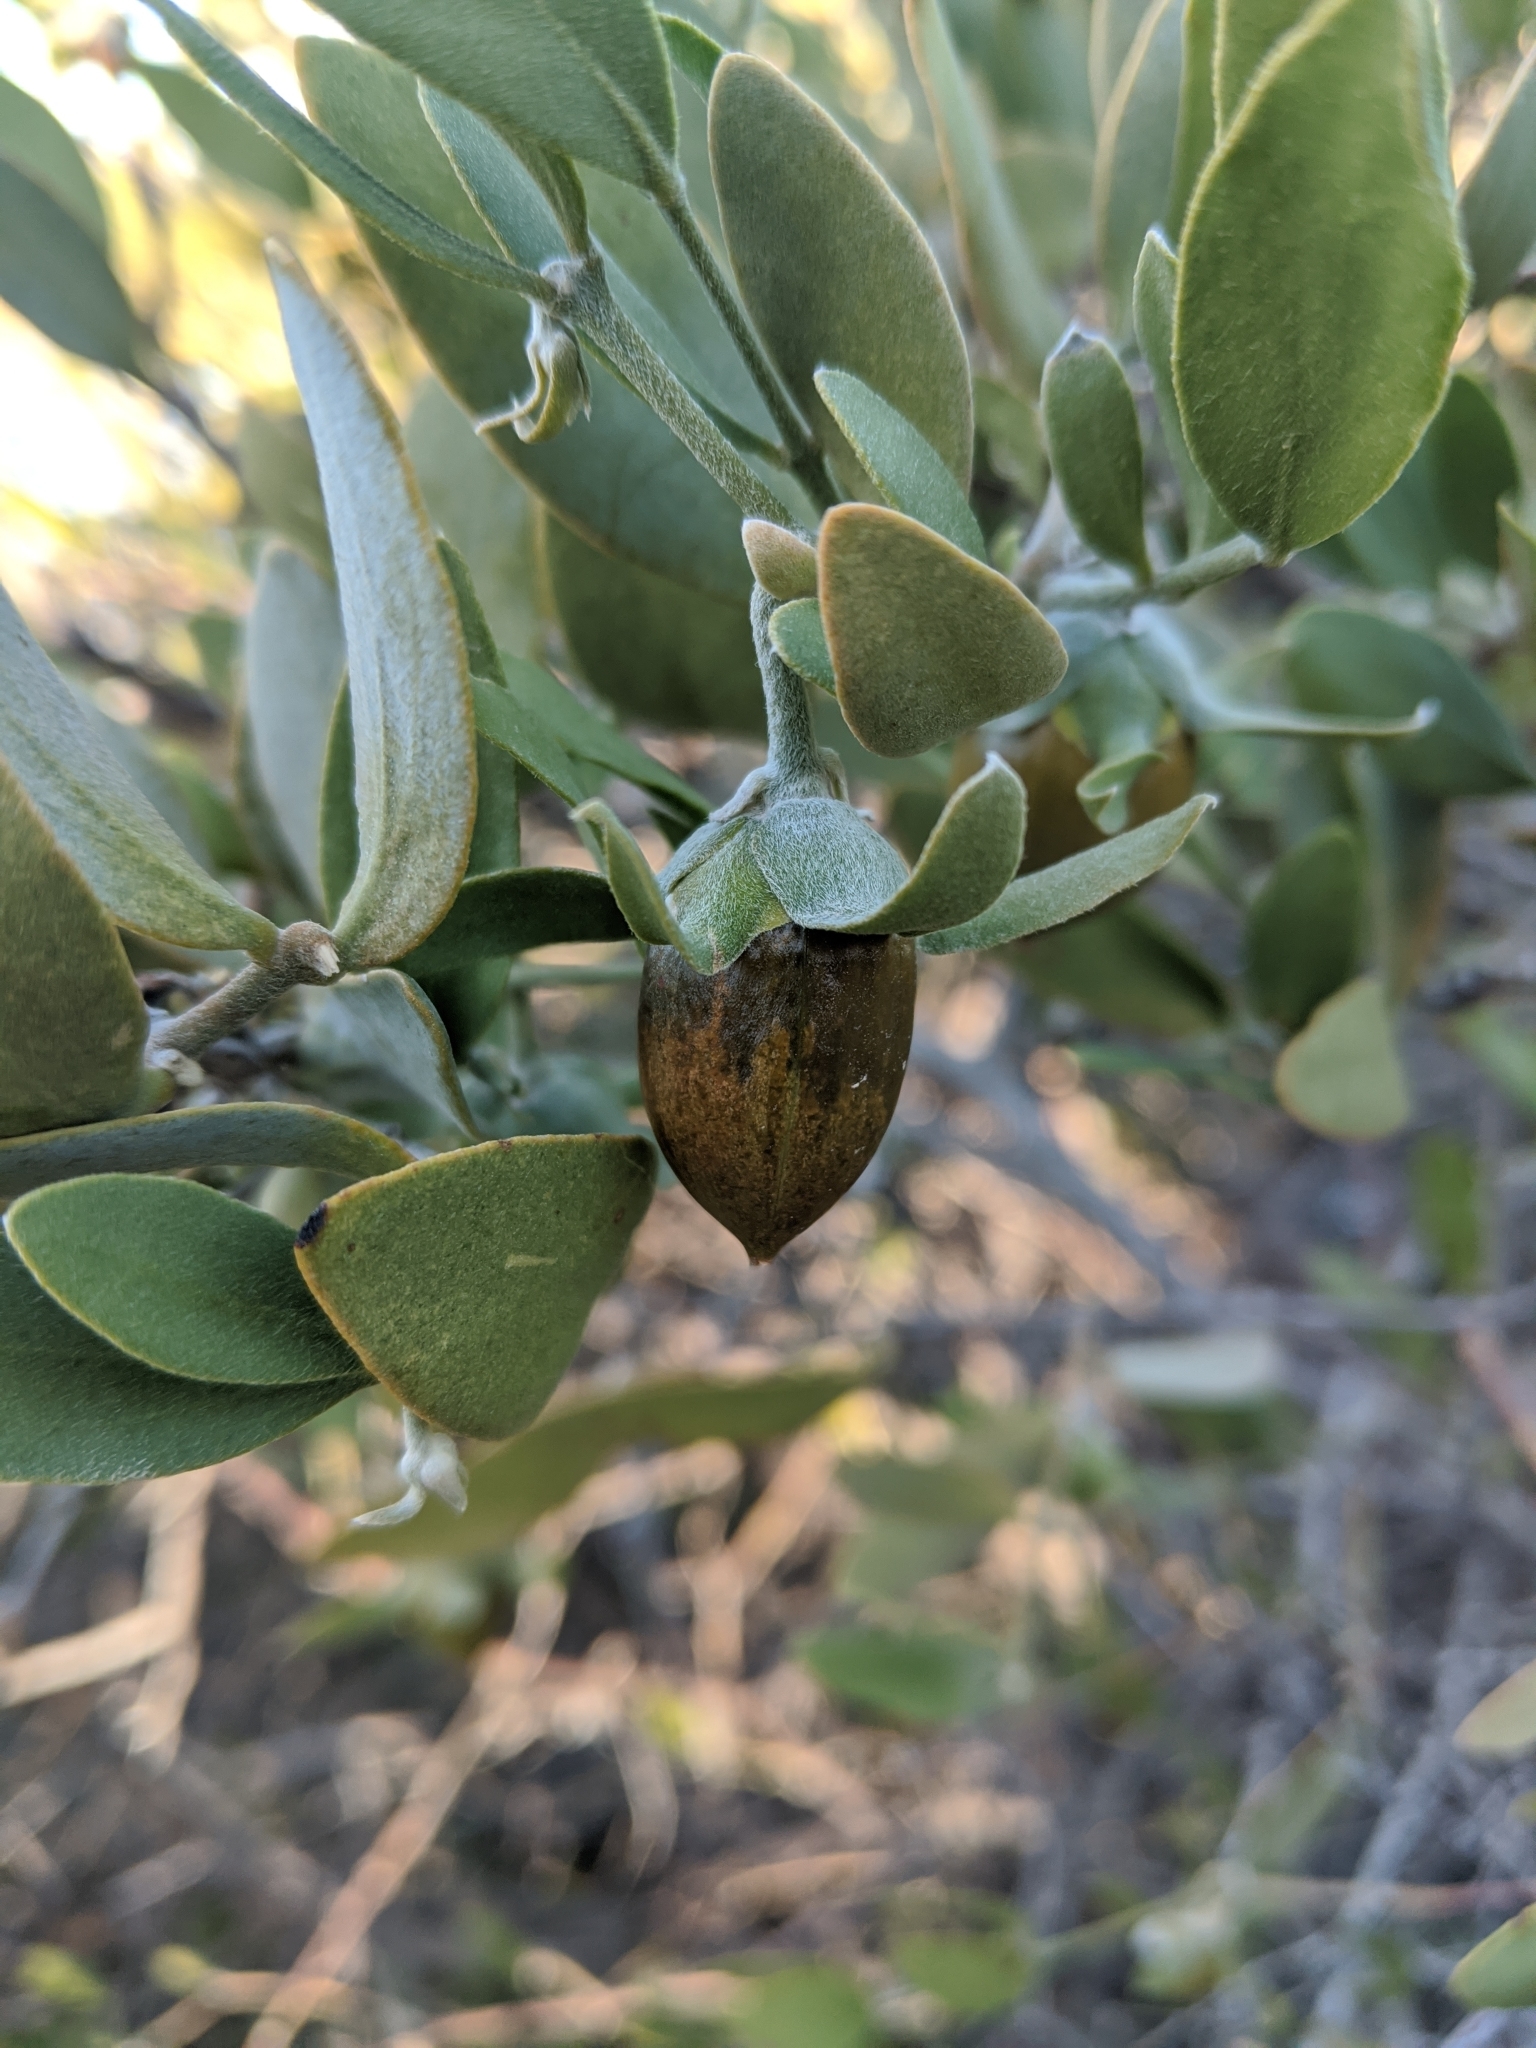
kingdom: Plantae
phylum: Tracheophyta
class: Magnoliopsida
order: Caryophyllales
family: Simmondsiaceae
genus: Simmondsia
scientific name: Simmondsia chinensis
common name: Jojoba
